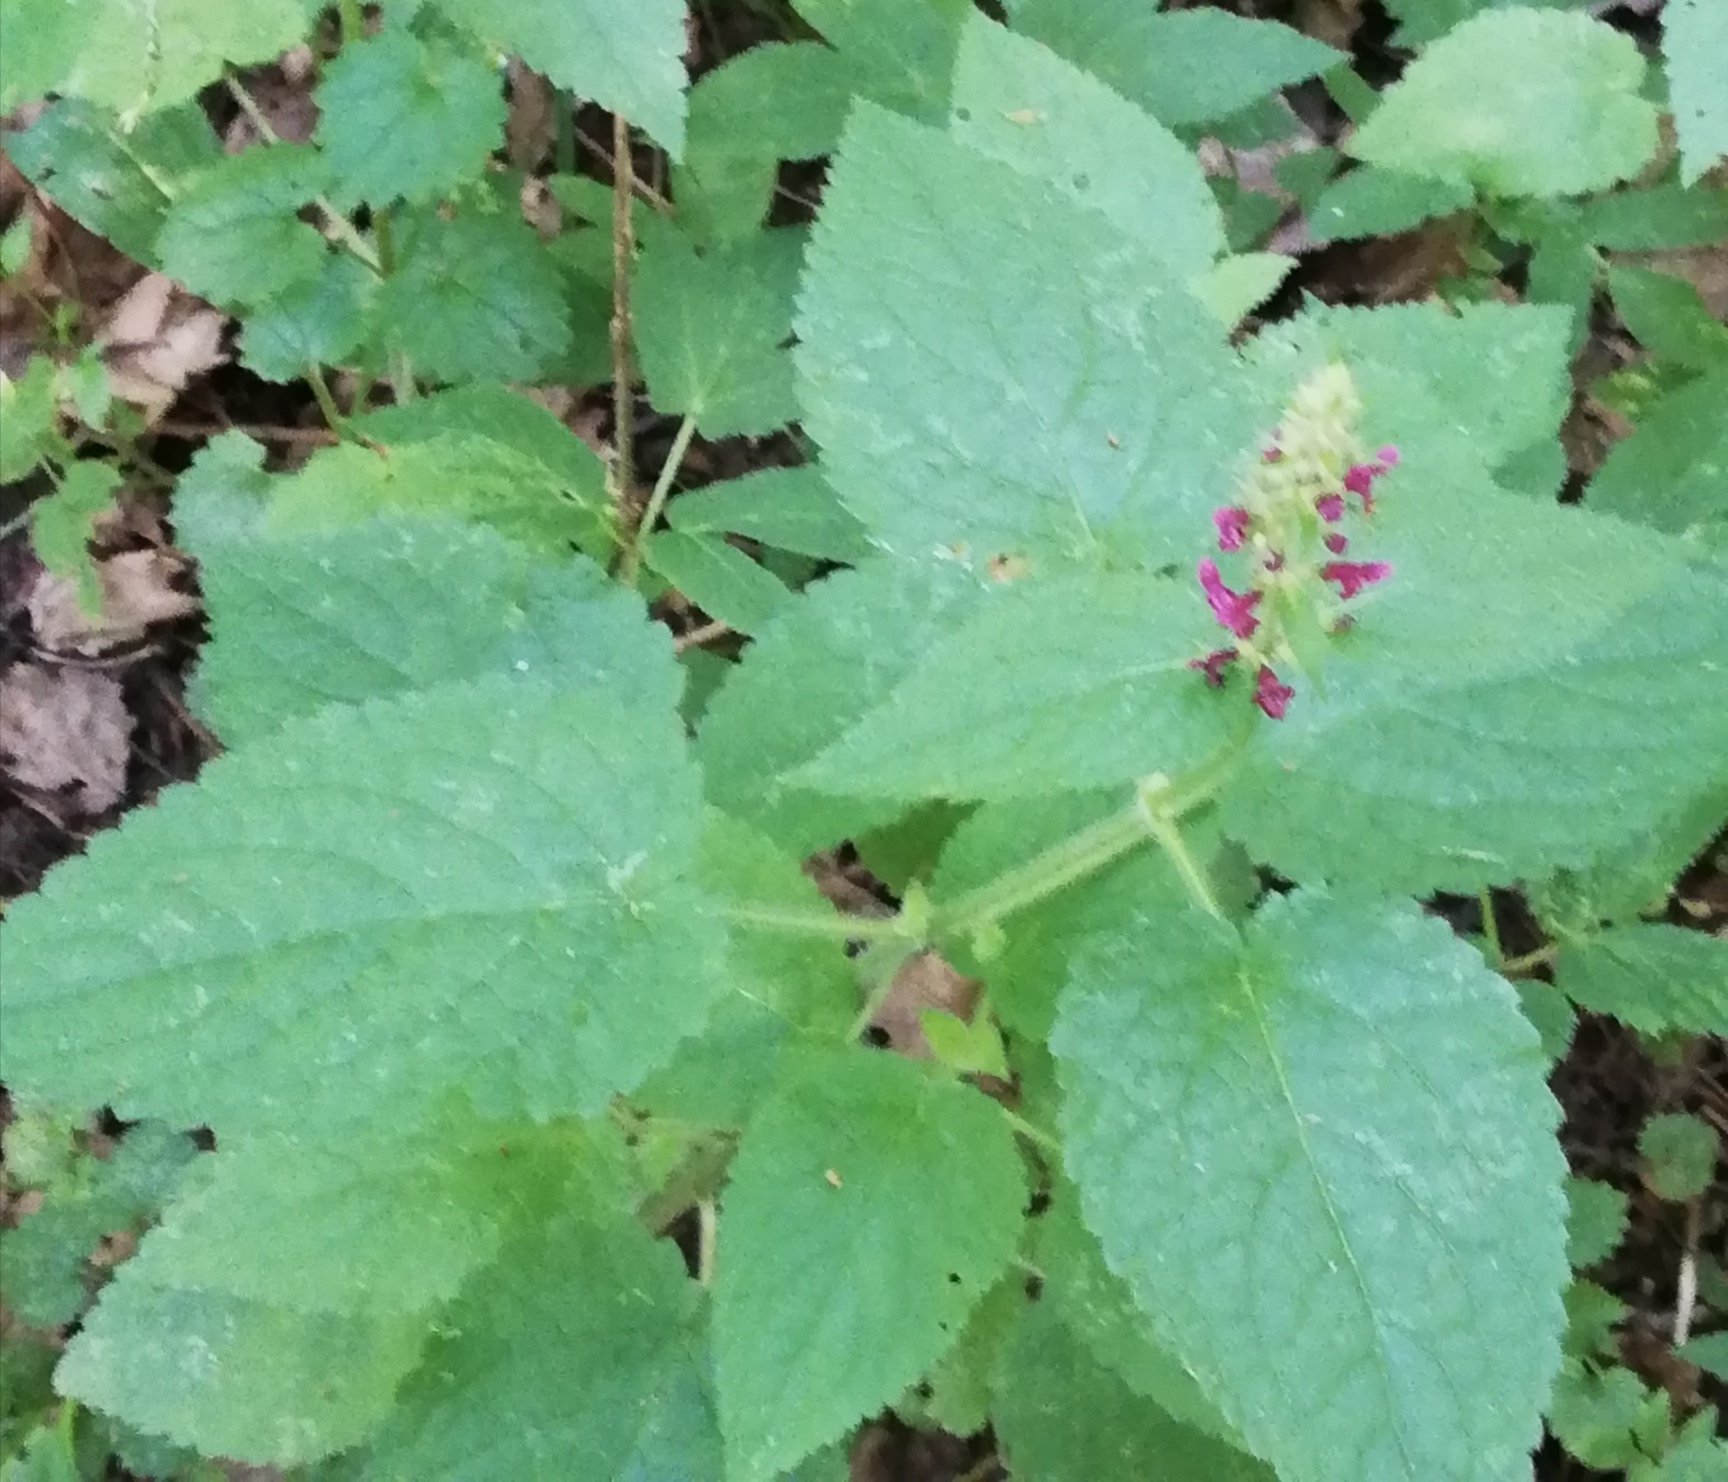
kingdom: Plantae
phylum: Tracheophyta
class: Magnoliopsida
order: Lamiales
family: Lamiaceae
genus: Stachys
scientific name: Stachys sylvatica
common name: Hedge woundwort
